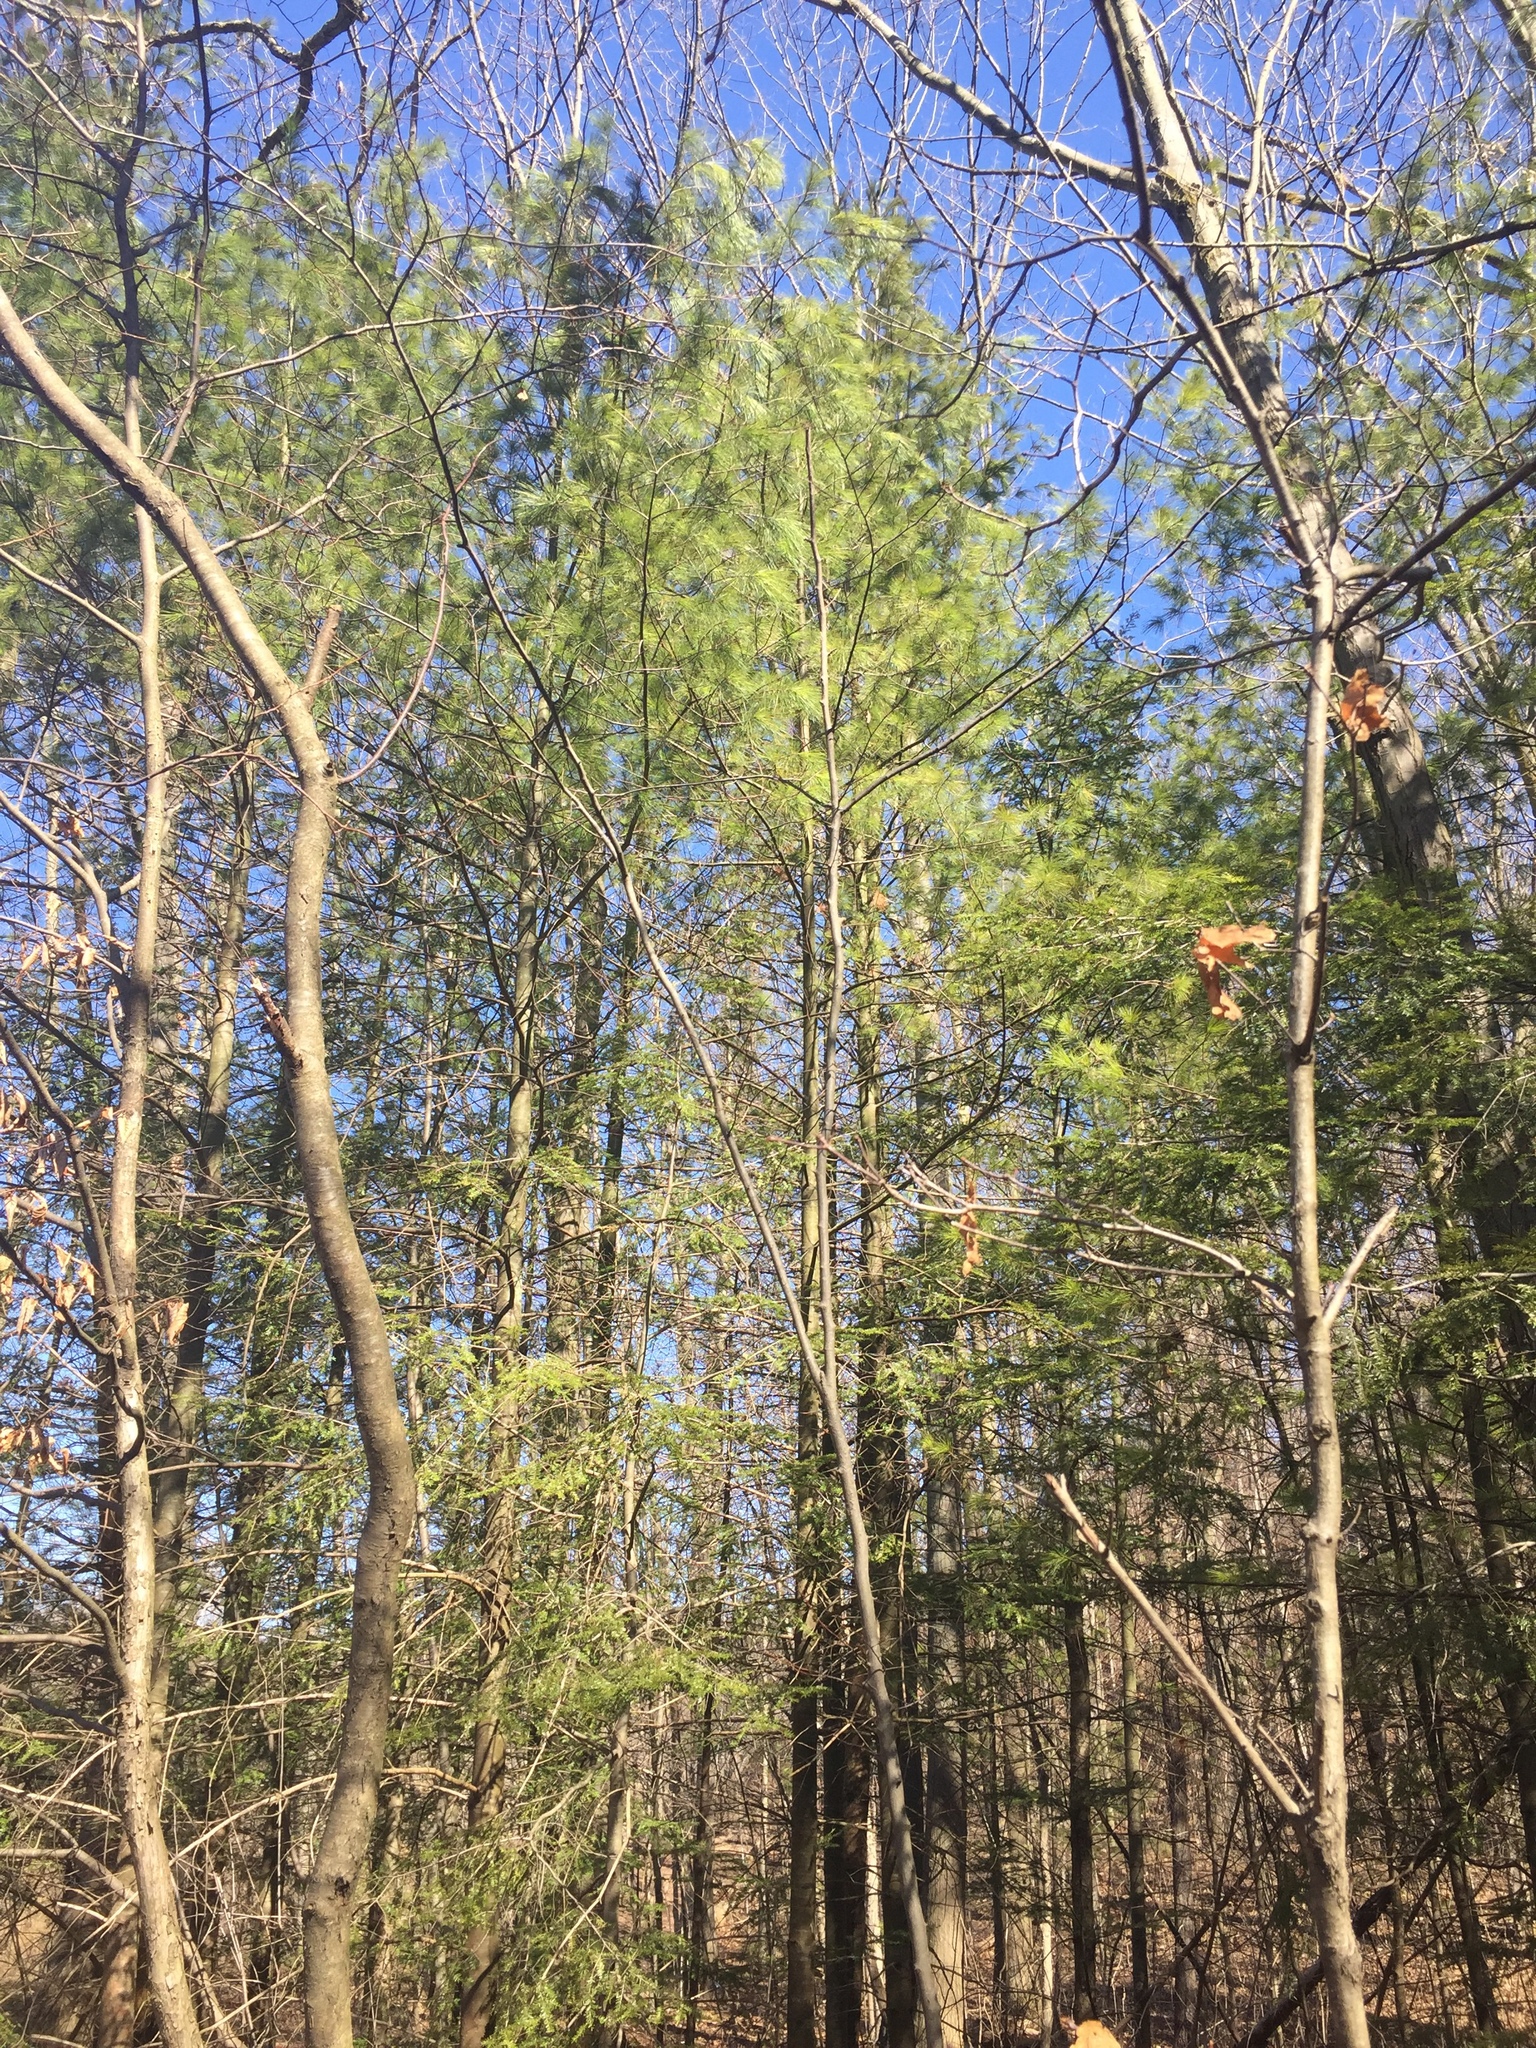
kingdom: Plantae
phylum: Tracheophyta
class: Pinopsida
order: Pinales
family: Pinaceae
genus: Pinus
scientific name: Pinus strobus
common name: Weymouth pine
